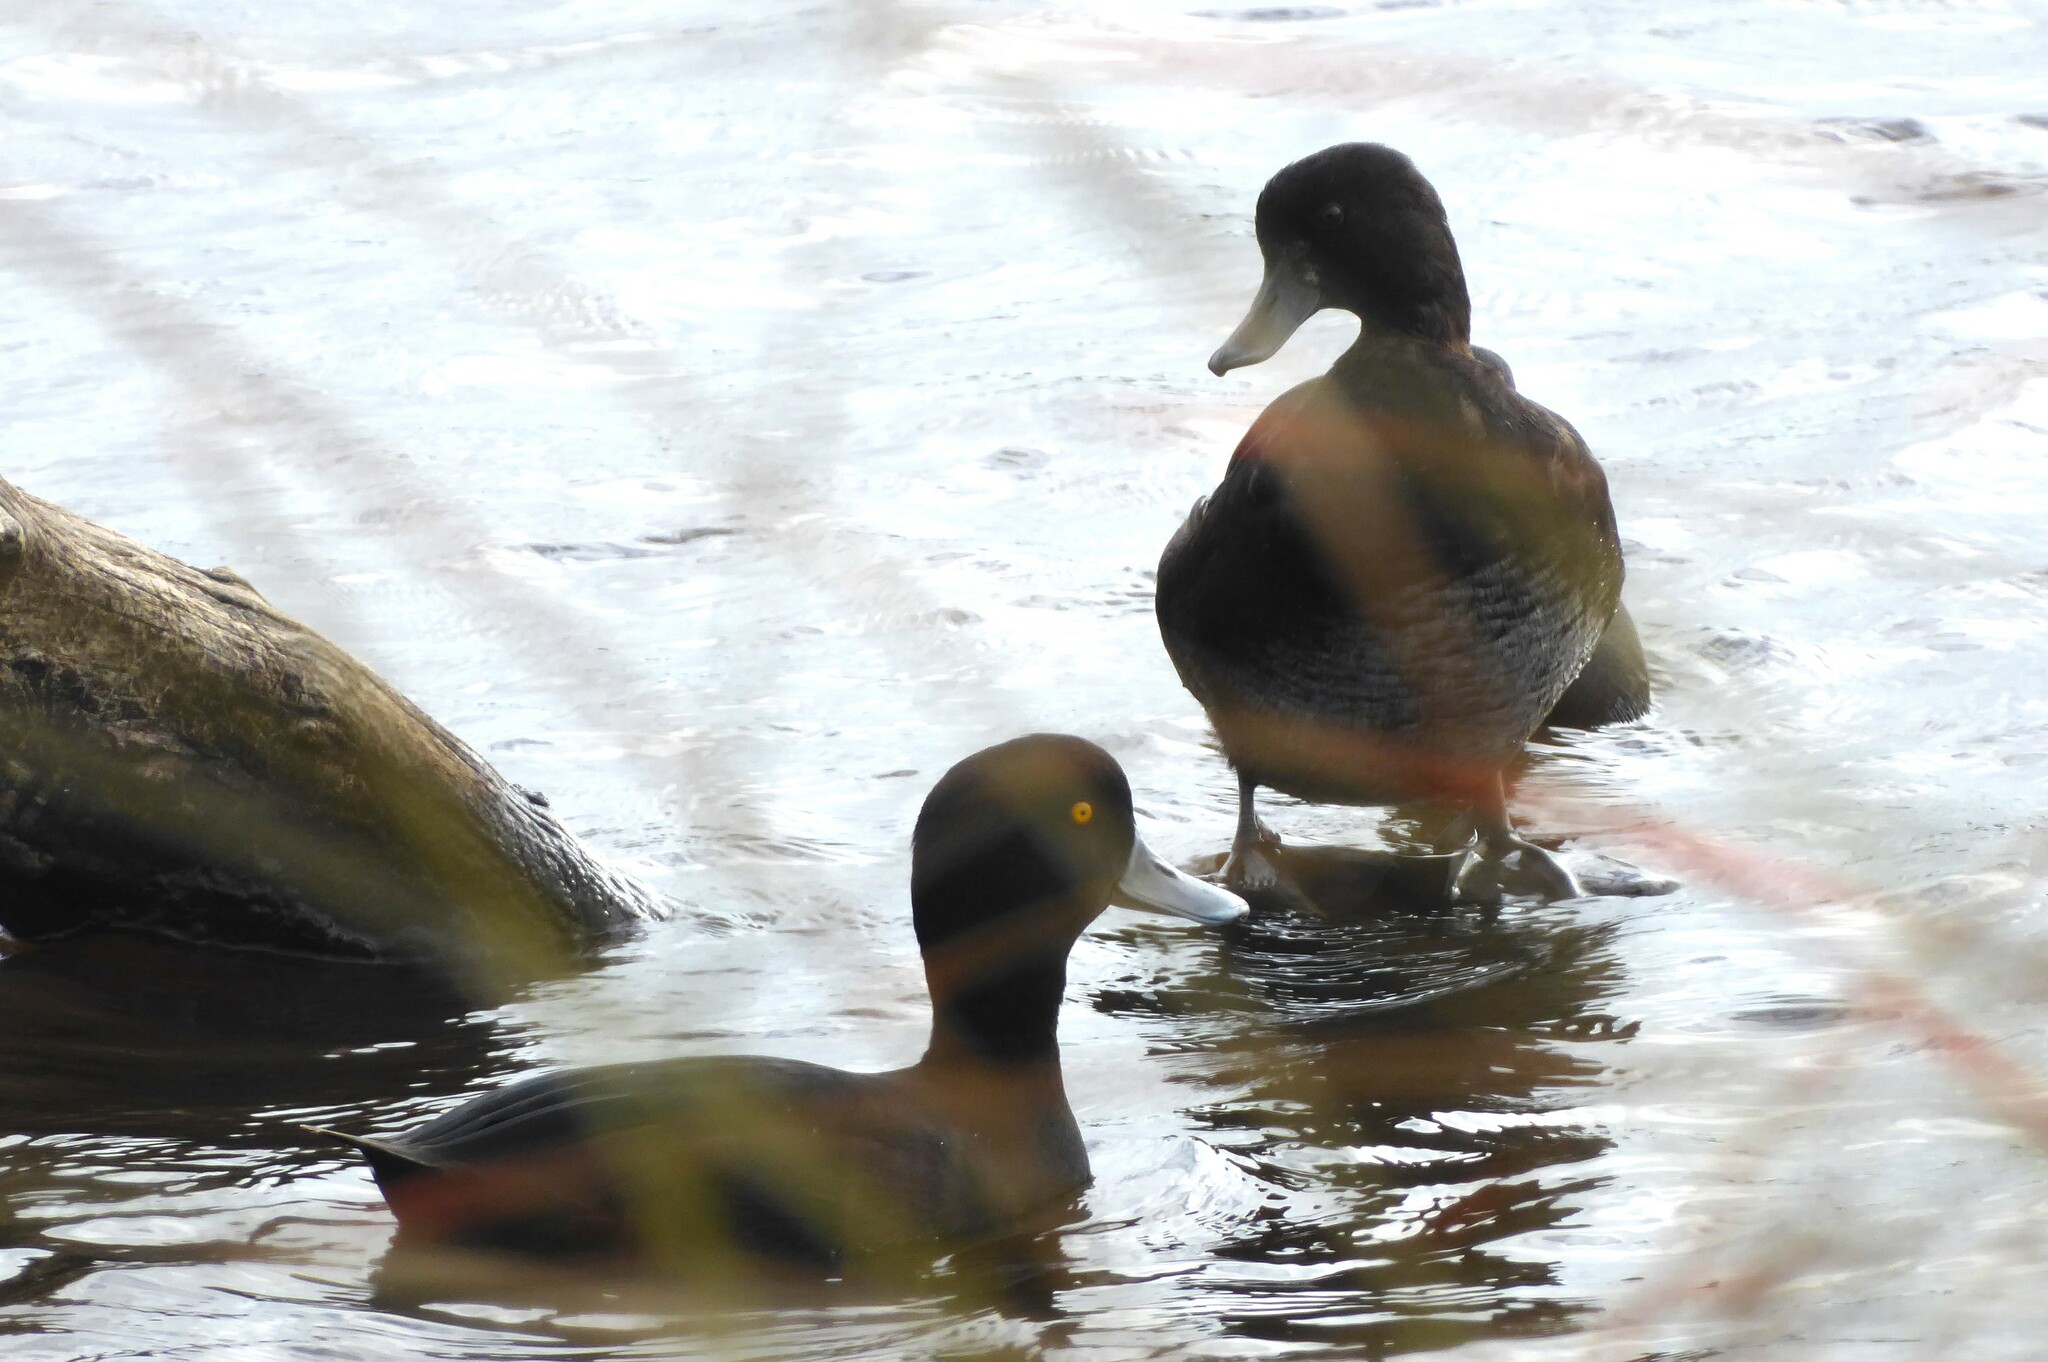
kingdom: Animalia
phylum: Chordata
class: Aves
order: Anseriformes
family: Anatidae
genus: Aythya
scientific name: Aythya novaeseelandiae
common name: New zealand scaup
